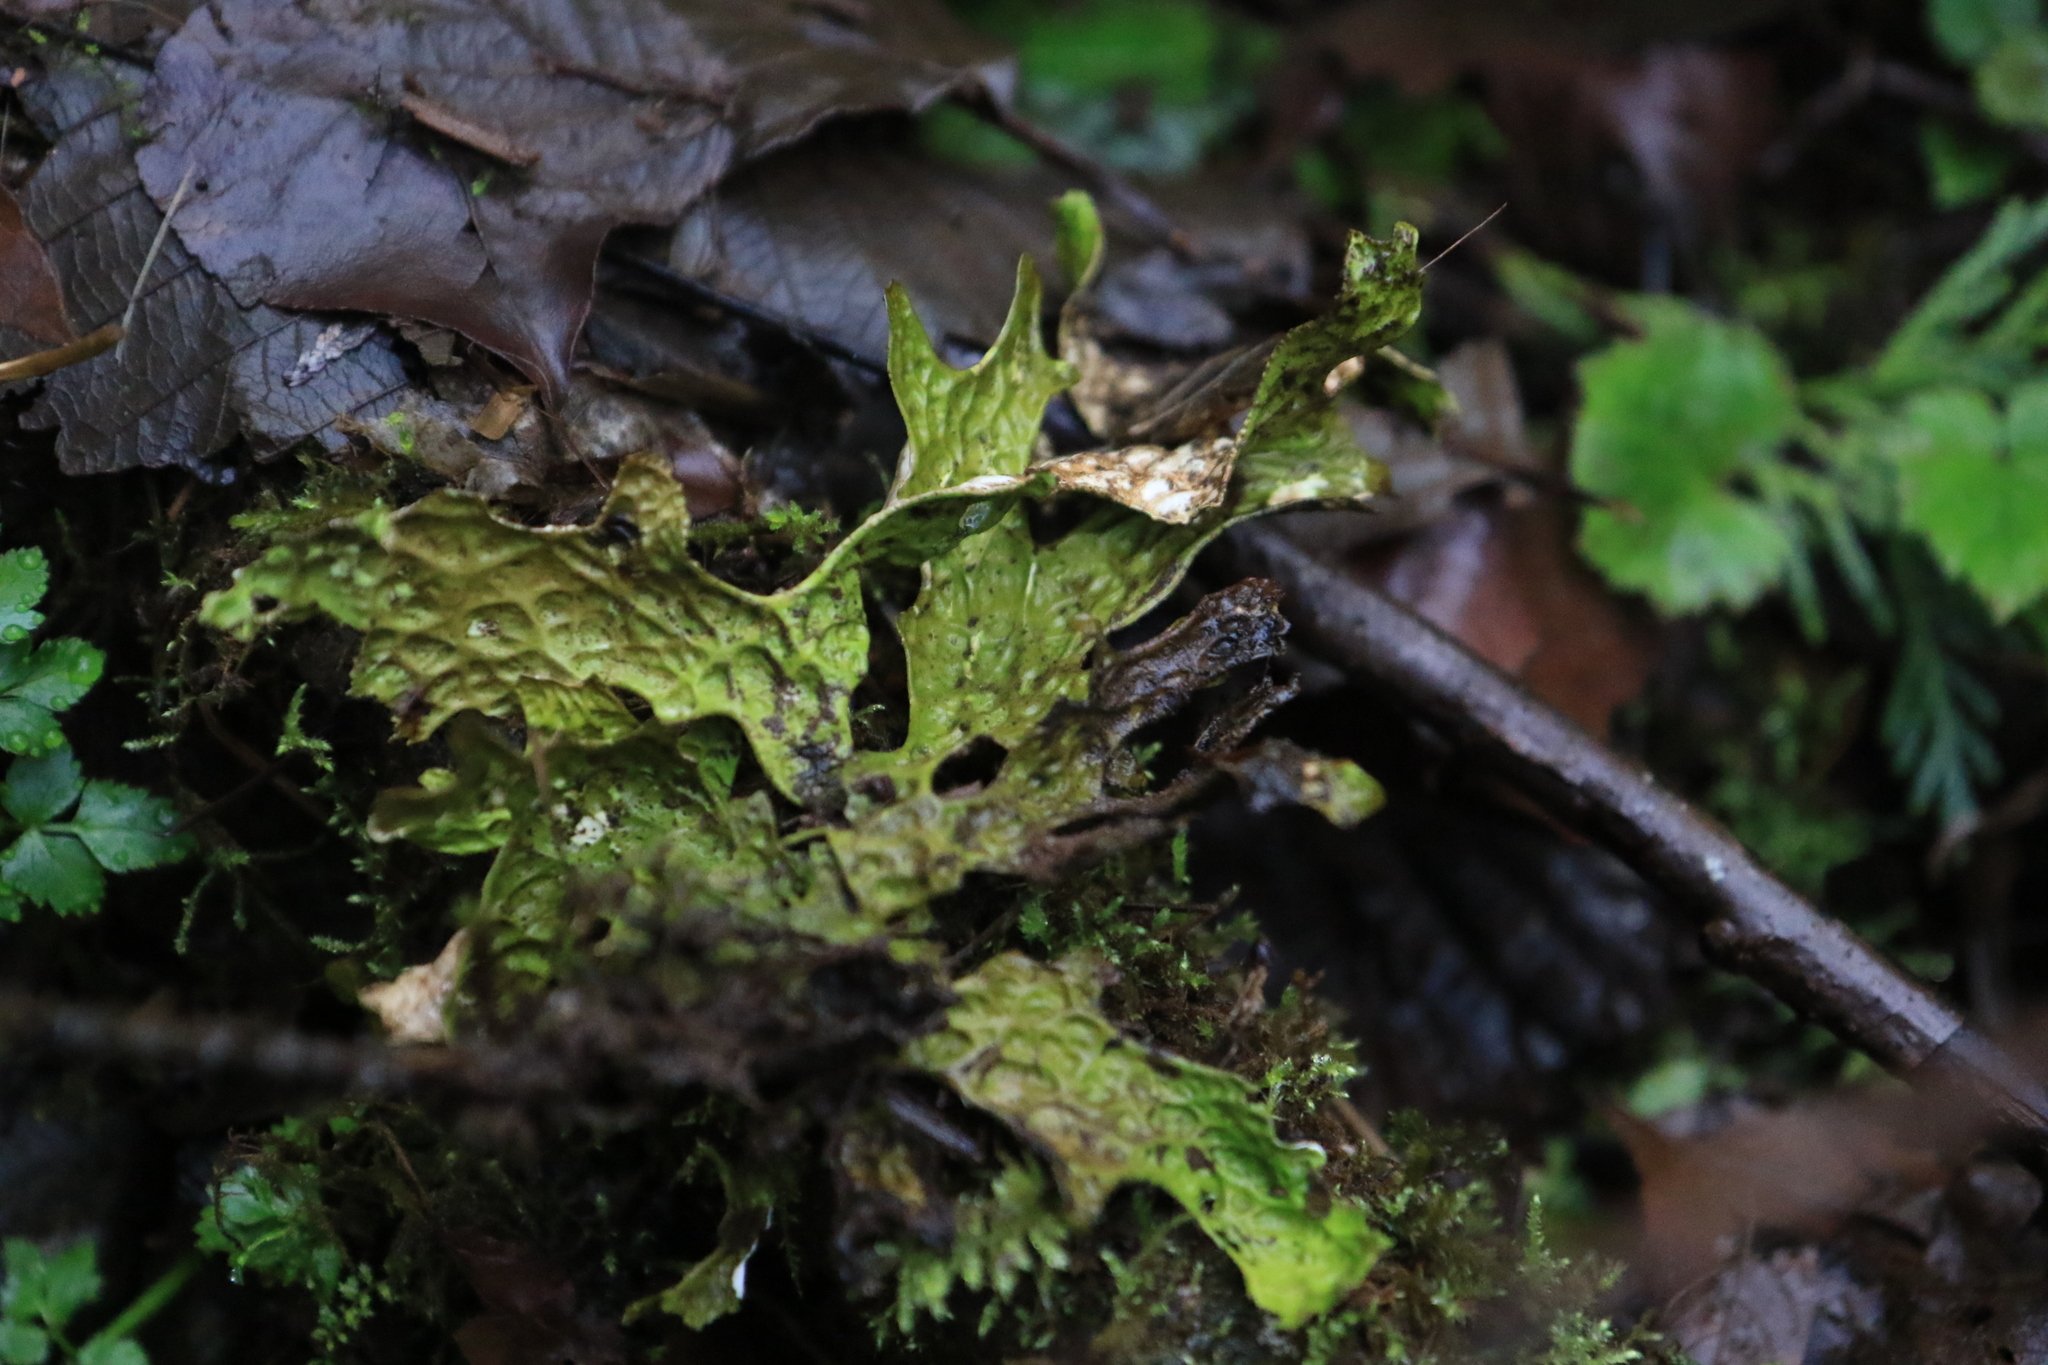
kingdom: Fungi
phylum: Ascomycota
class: Lecanoromycetes
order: Peltigerales
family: Lobariaceae
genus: Lobaria
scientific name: Lobaria pulmonaria
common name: Lungwort
